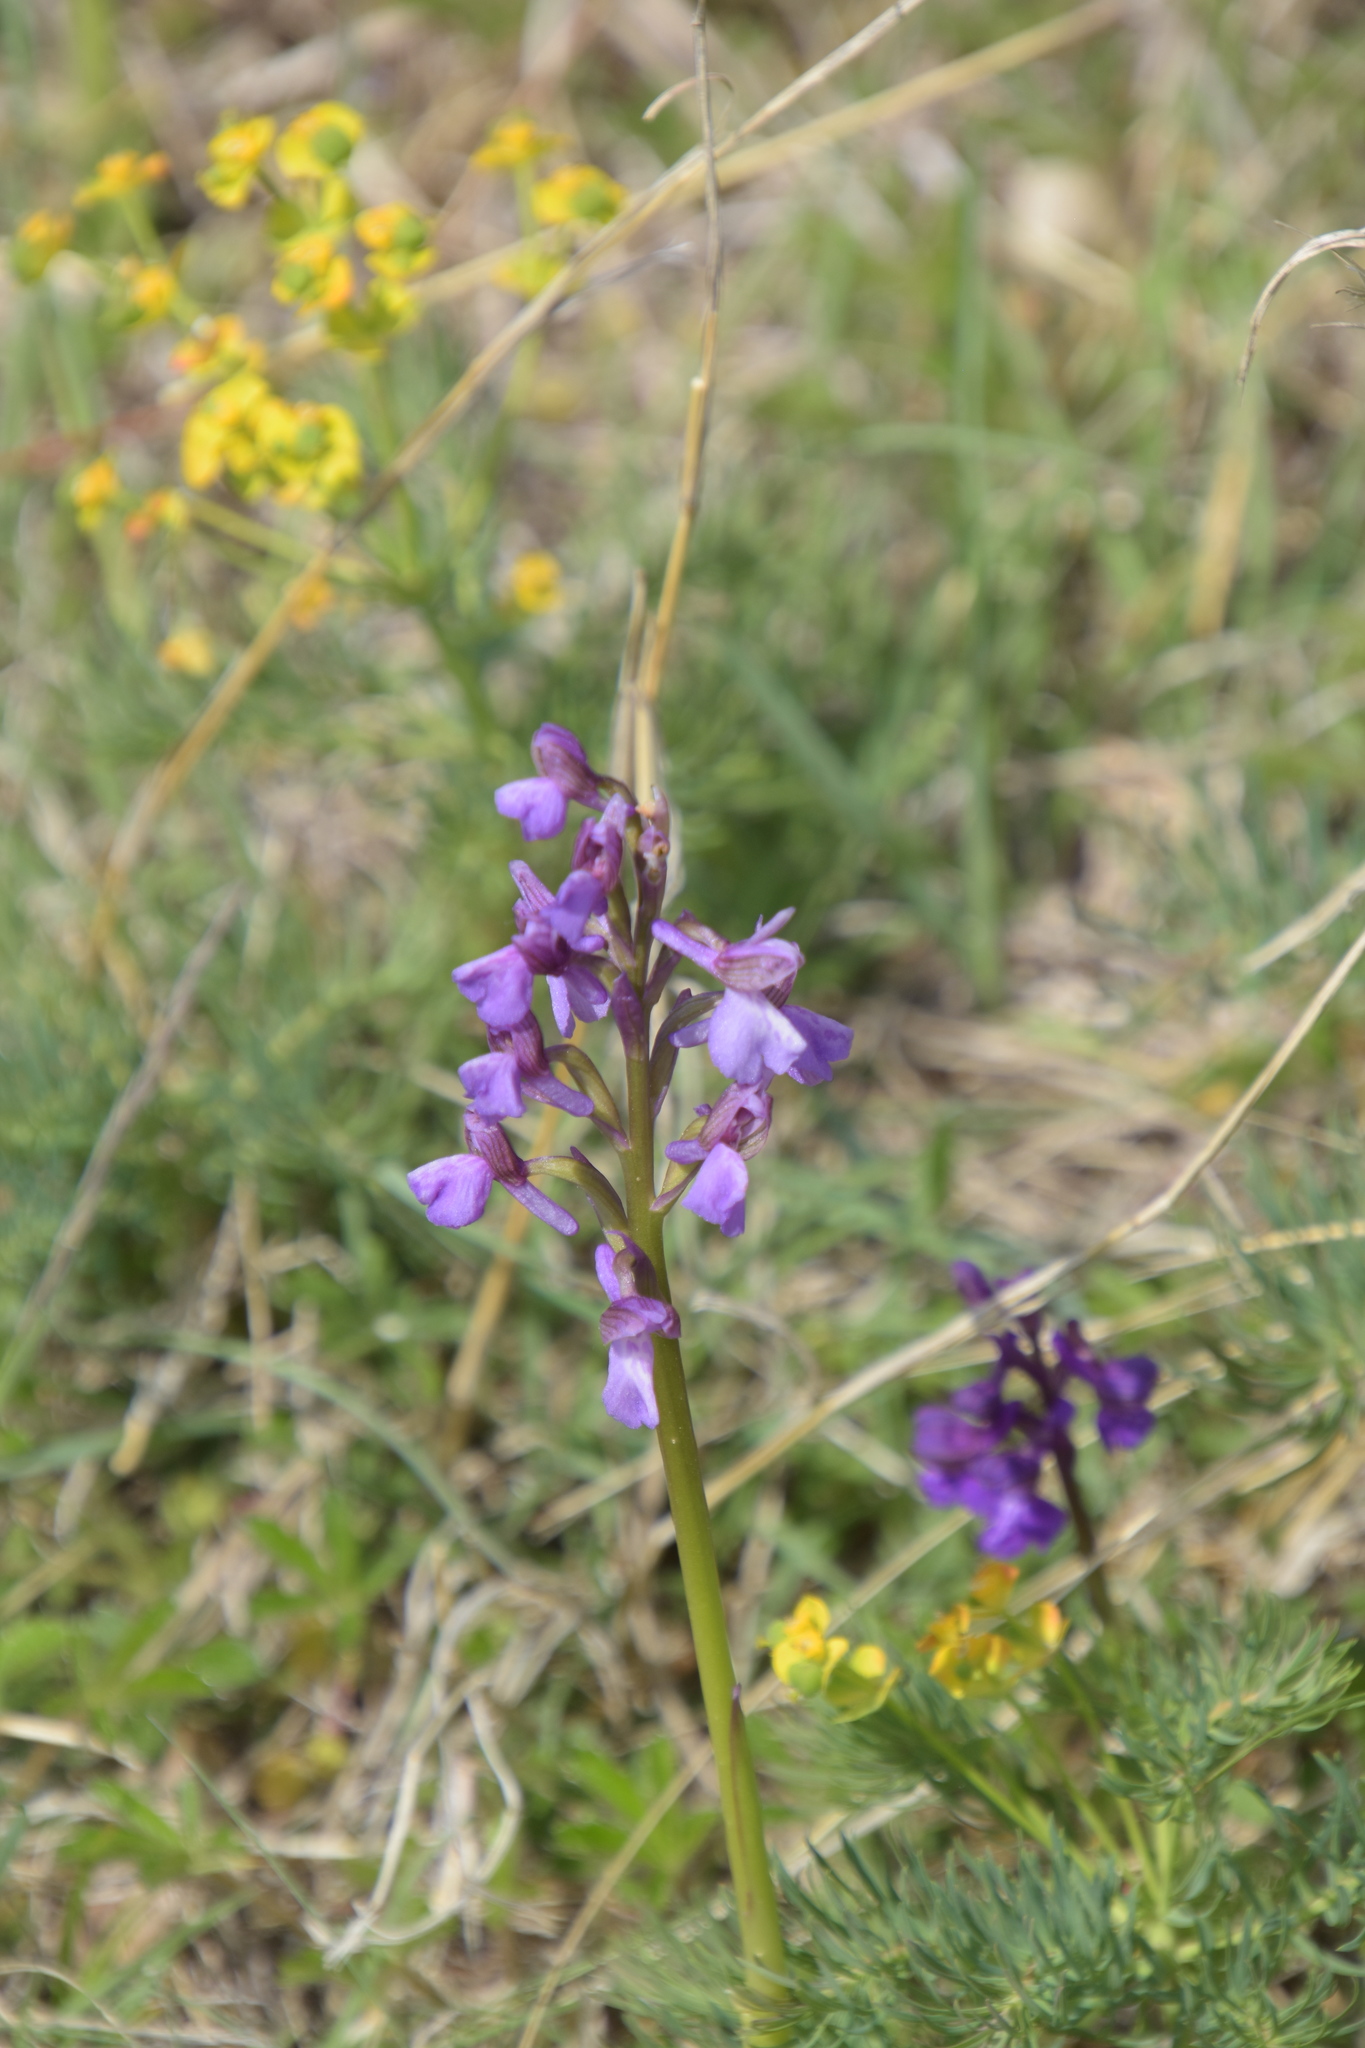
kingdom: Plantae
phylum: Tracheophyta
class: Liliopsida
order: Asparagales
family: Orchidaceae
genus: Anacamptis
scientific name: Anacamptis morio
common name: Green-winged orchid
